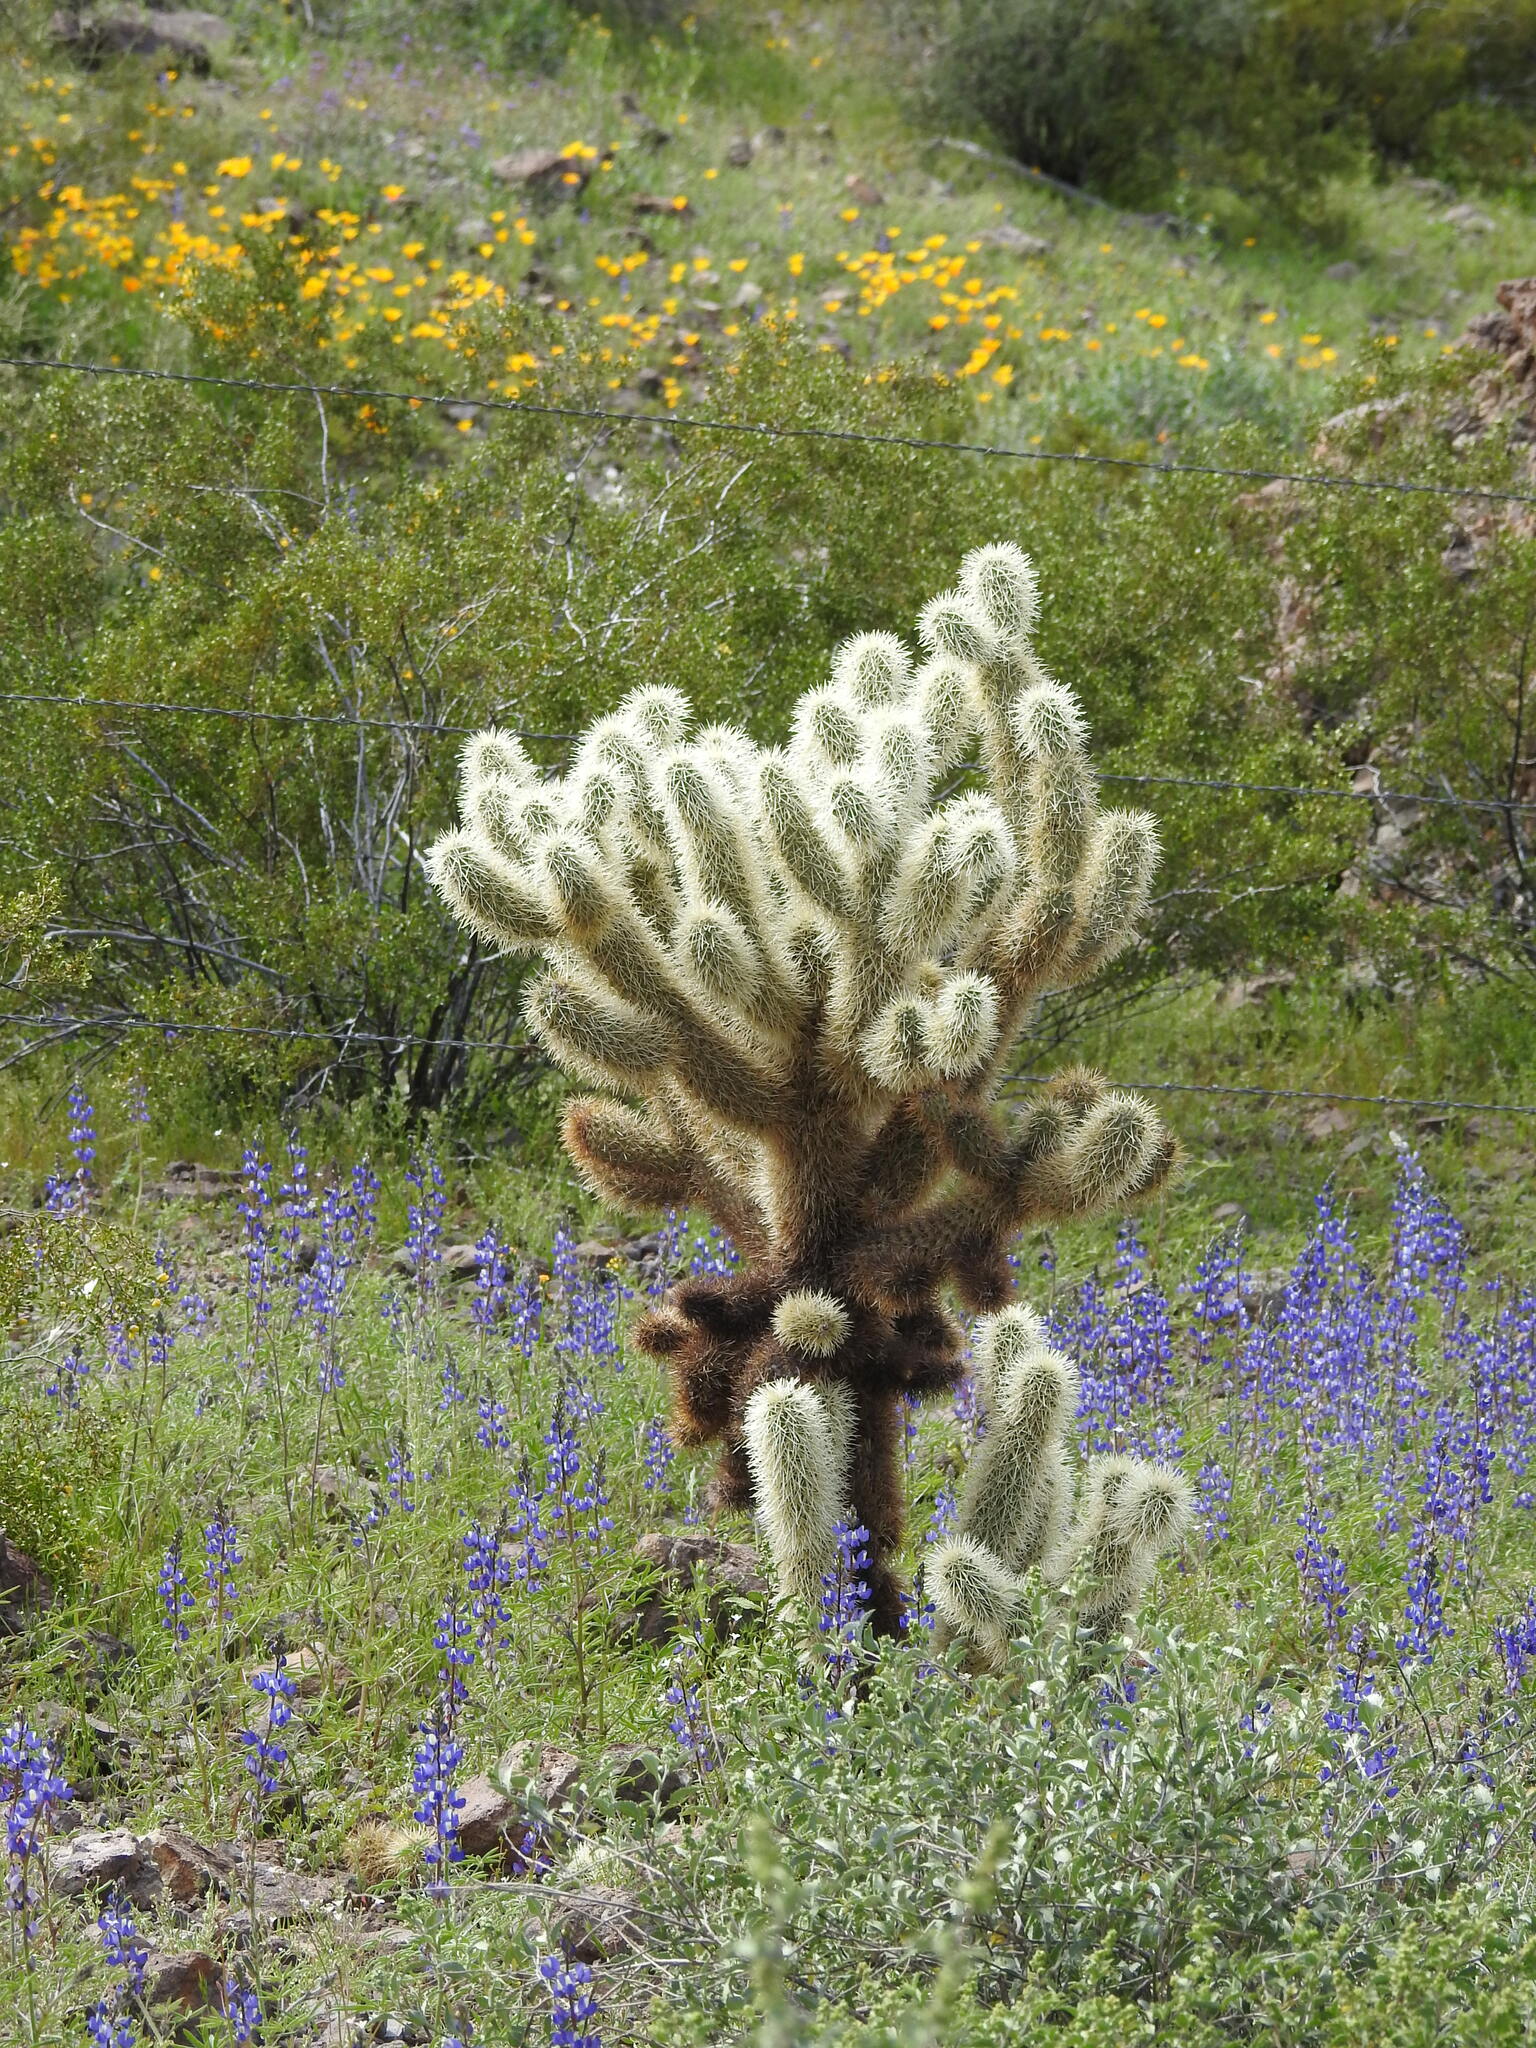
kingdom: Plantae
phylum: Tracheophyta
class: Magnoliopsida
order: Caryophyllales
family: Cactaceae
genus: Cylindropuntia
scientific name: Cylindropuntia fosbergii
